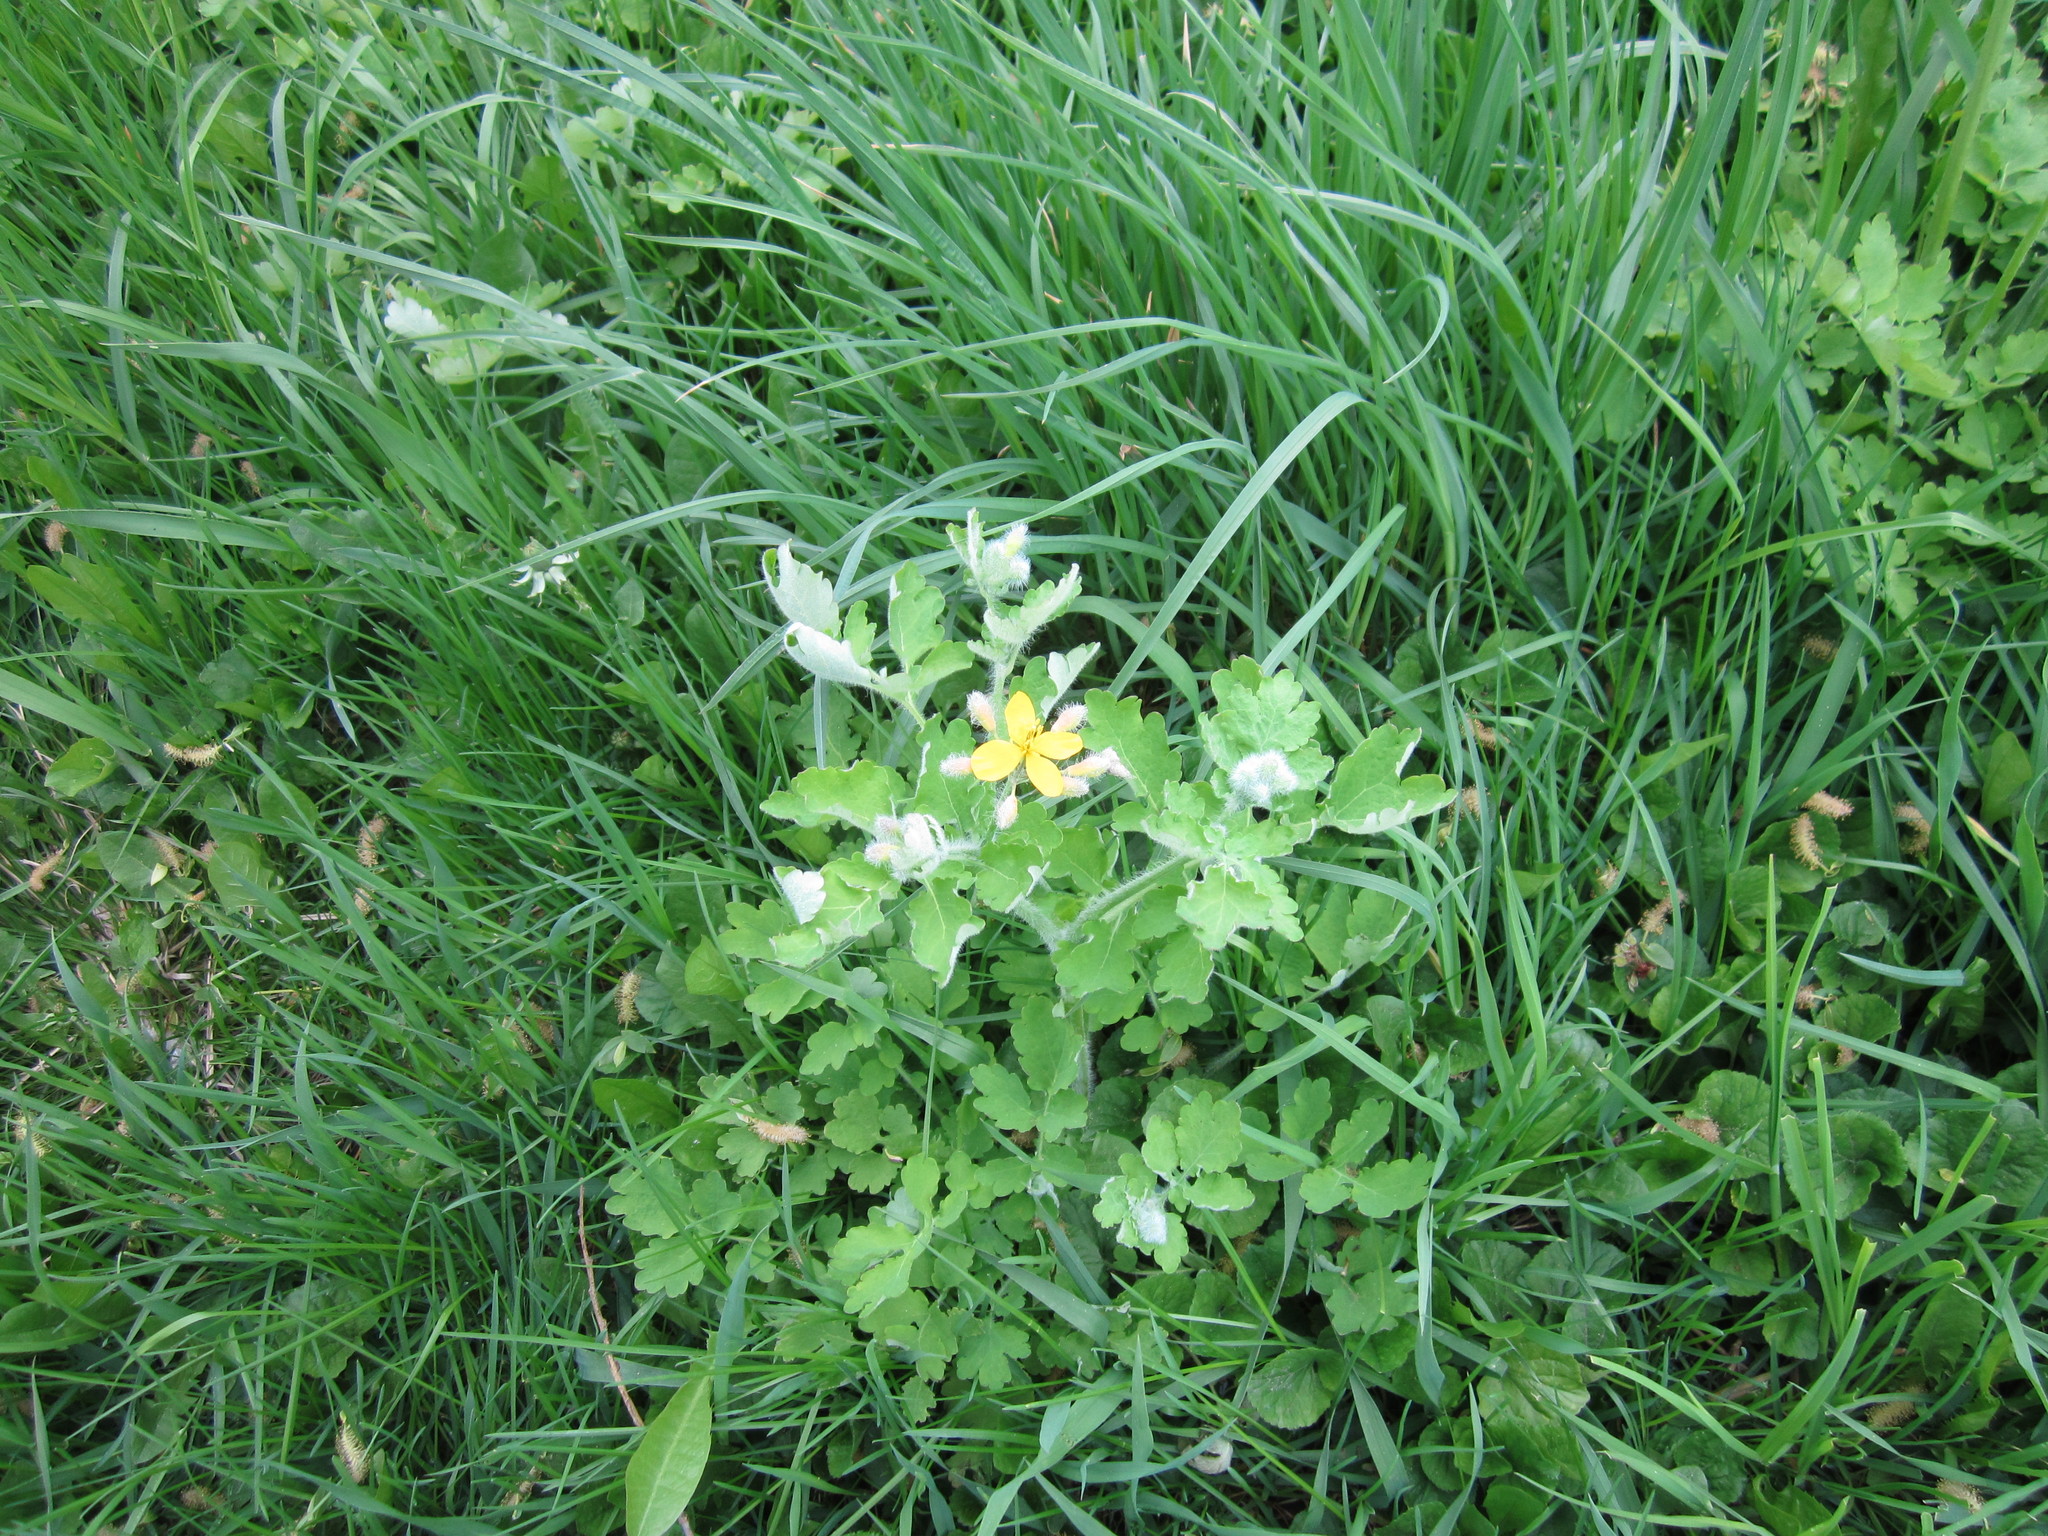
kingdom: Plantae
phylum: Tracheophyta
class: Magnoliopsida
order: Ranunculales
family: Papaveraceae
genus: Chelidonium
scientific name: Chelidonium majus
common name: Greater celandine
